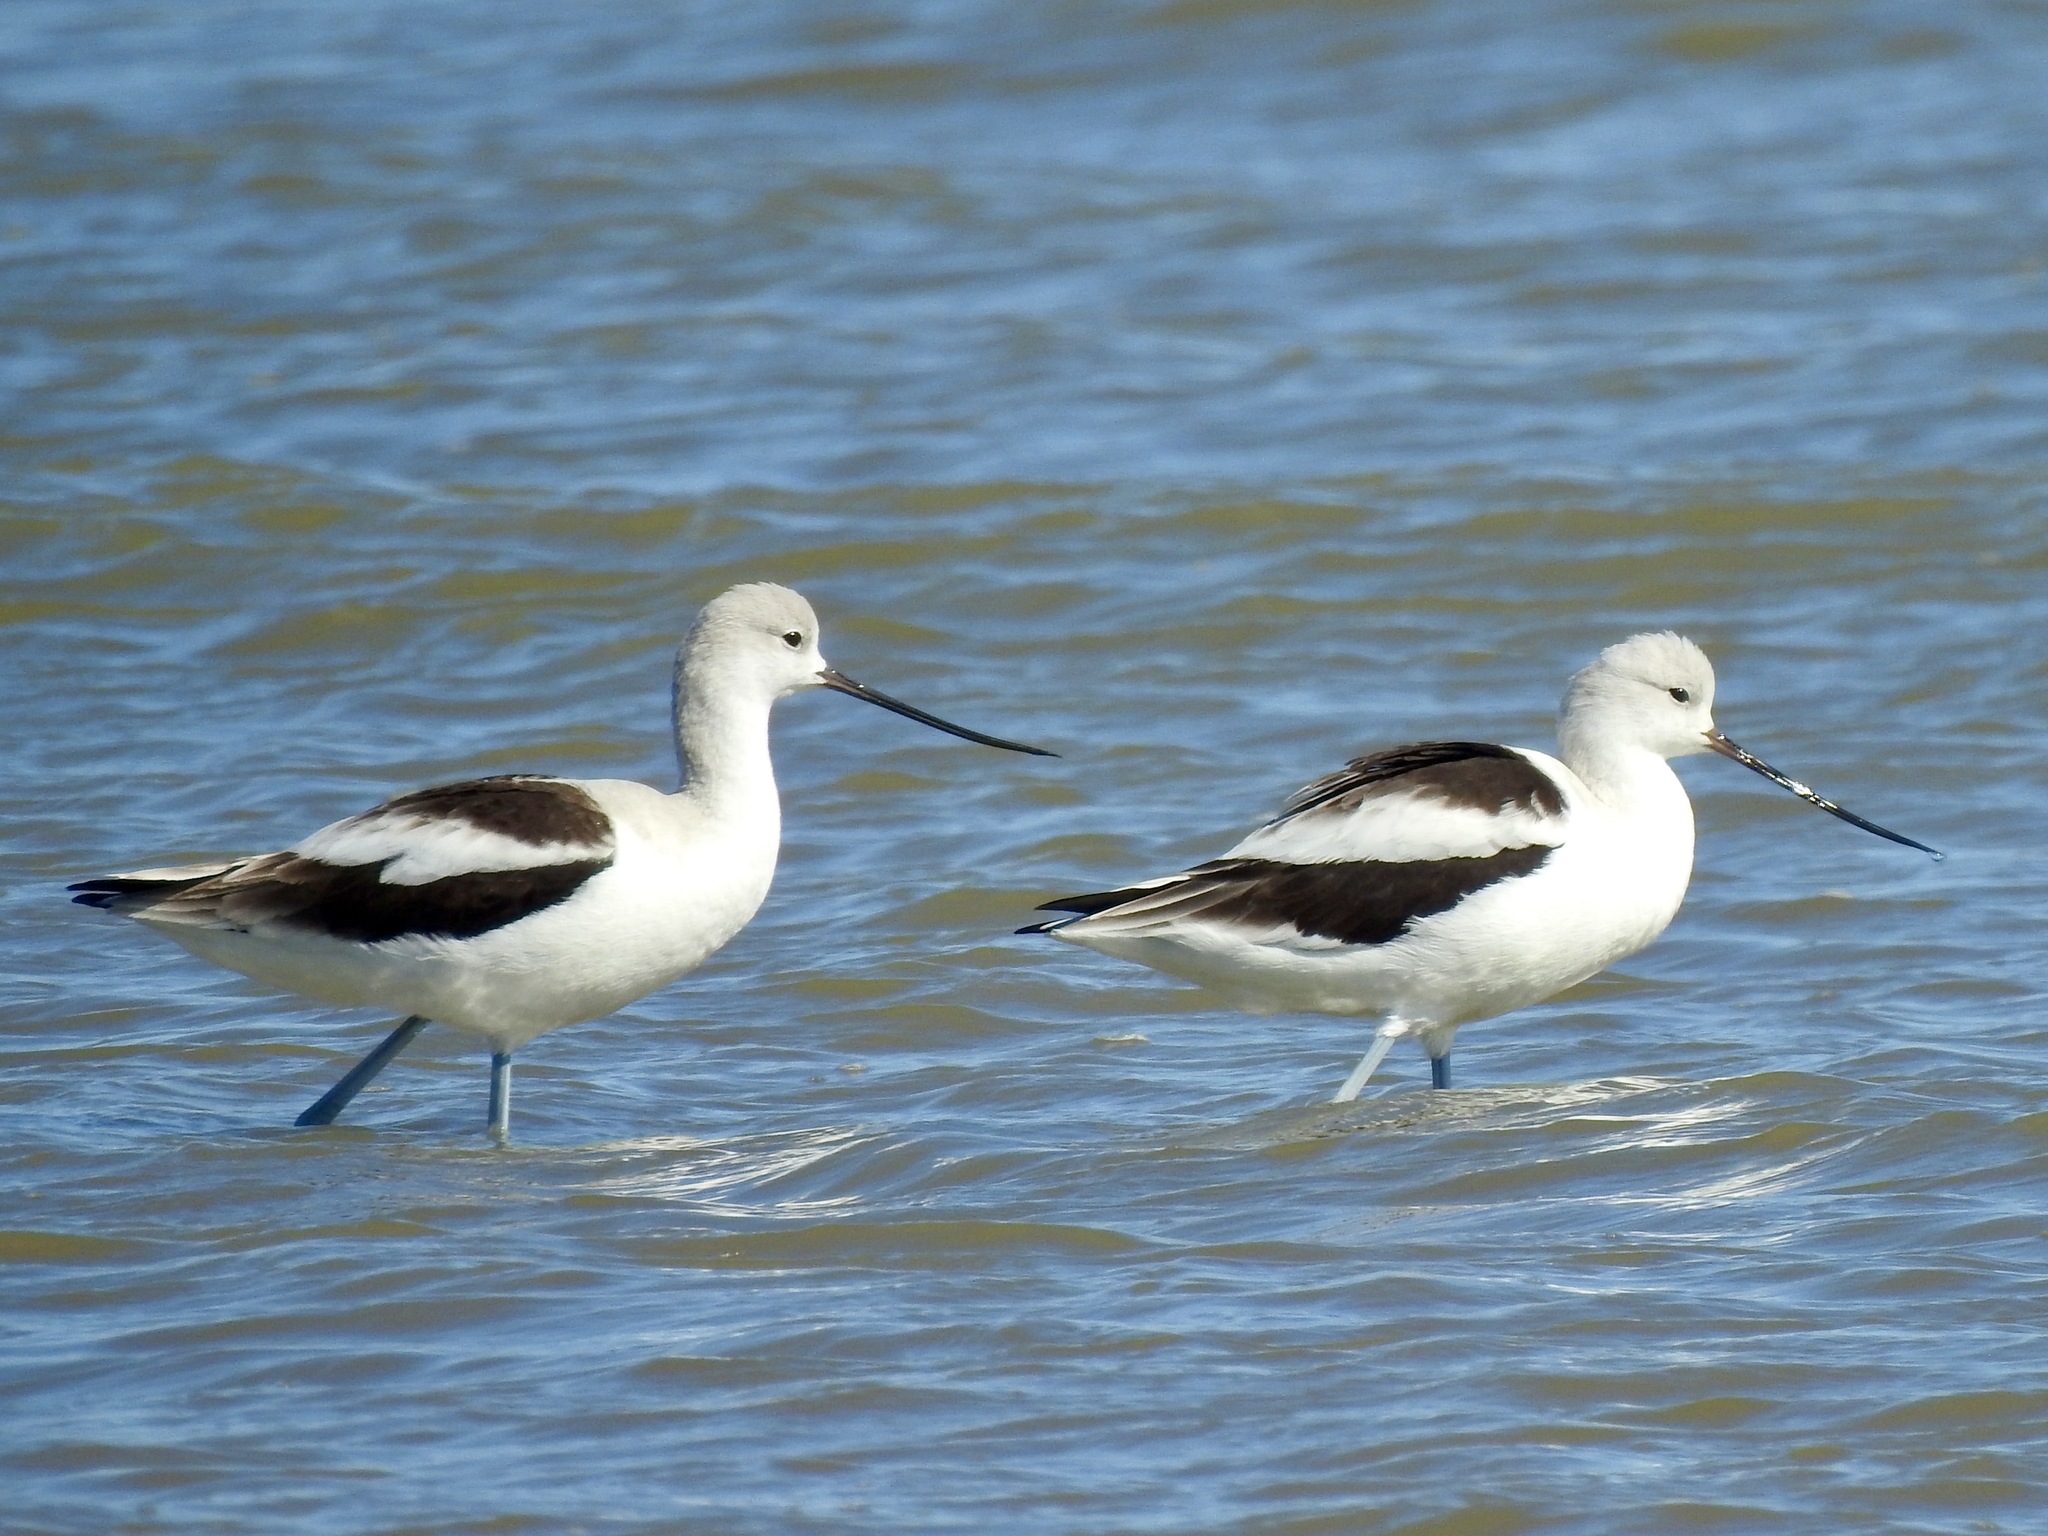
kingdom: Animalia
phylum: Chordata
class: Aves
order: Charadriiformes
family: Recurvirostridae
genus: Recurvirostra
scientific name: Recurvirostra americana
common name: American avocet
